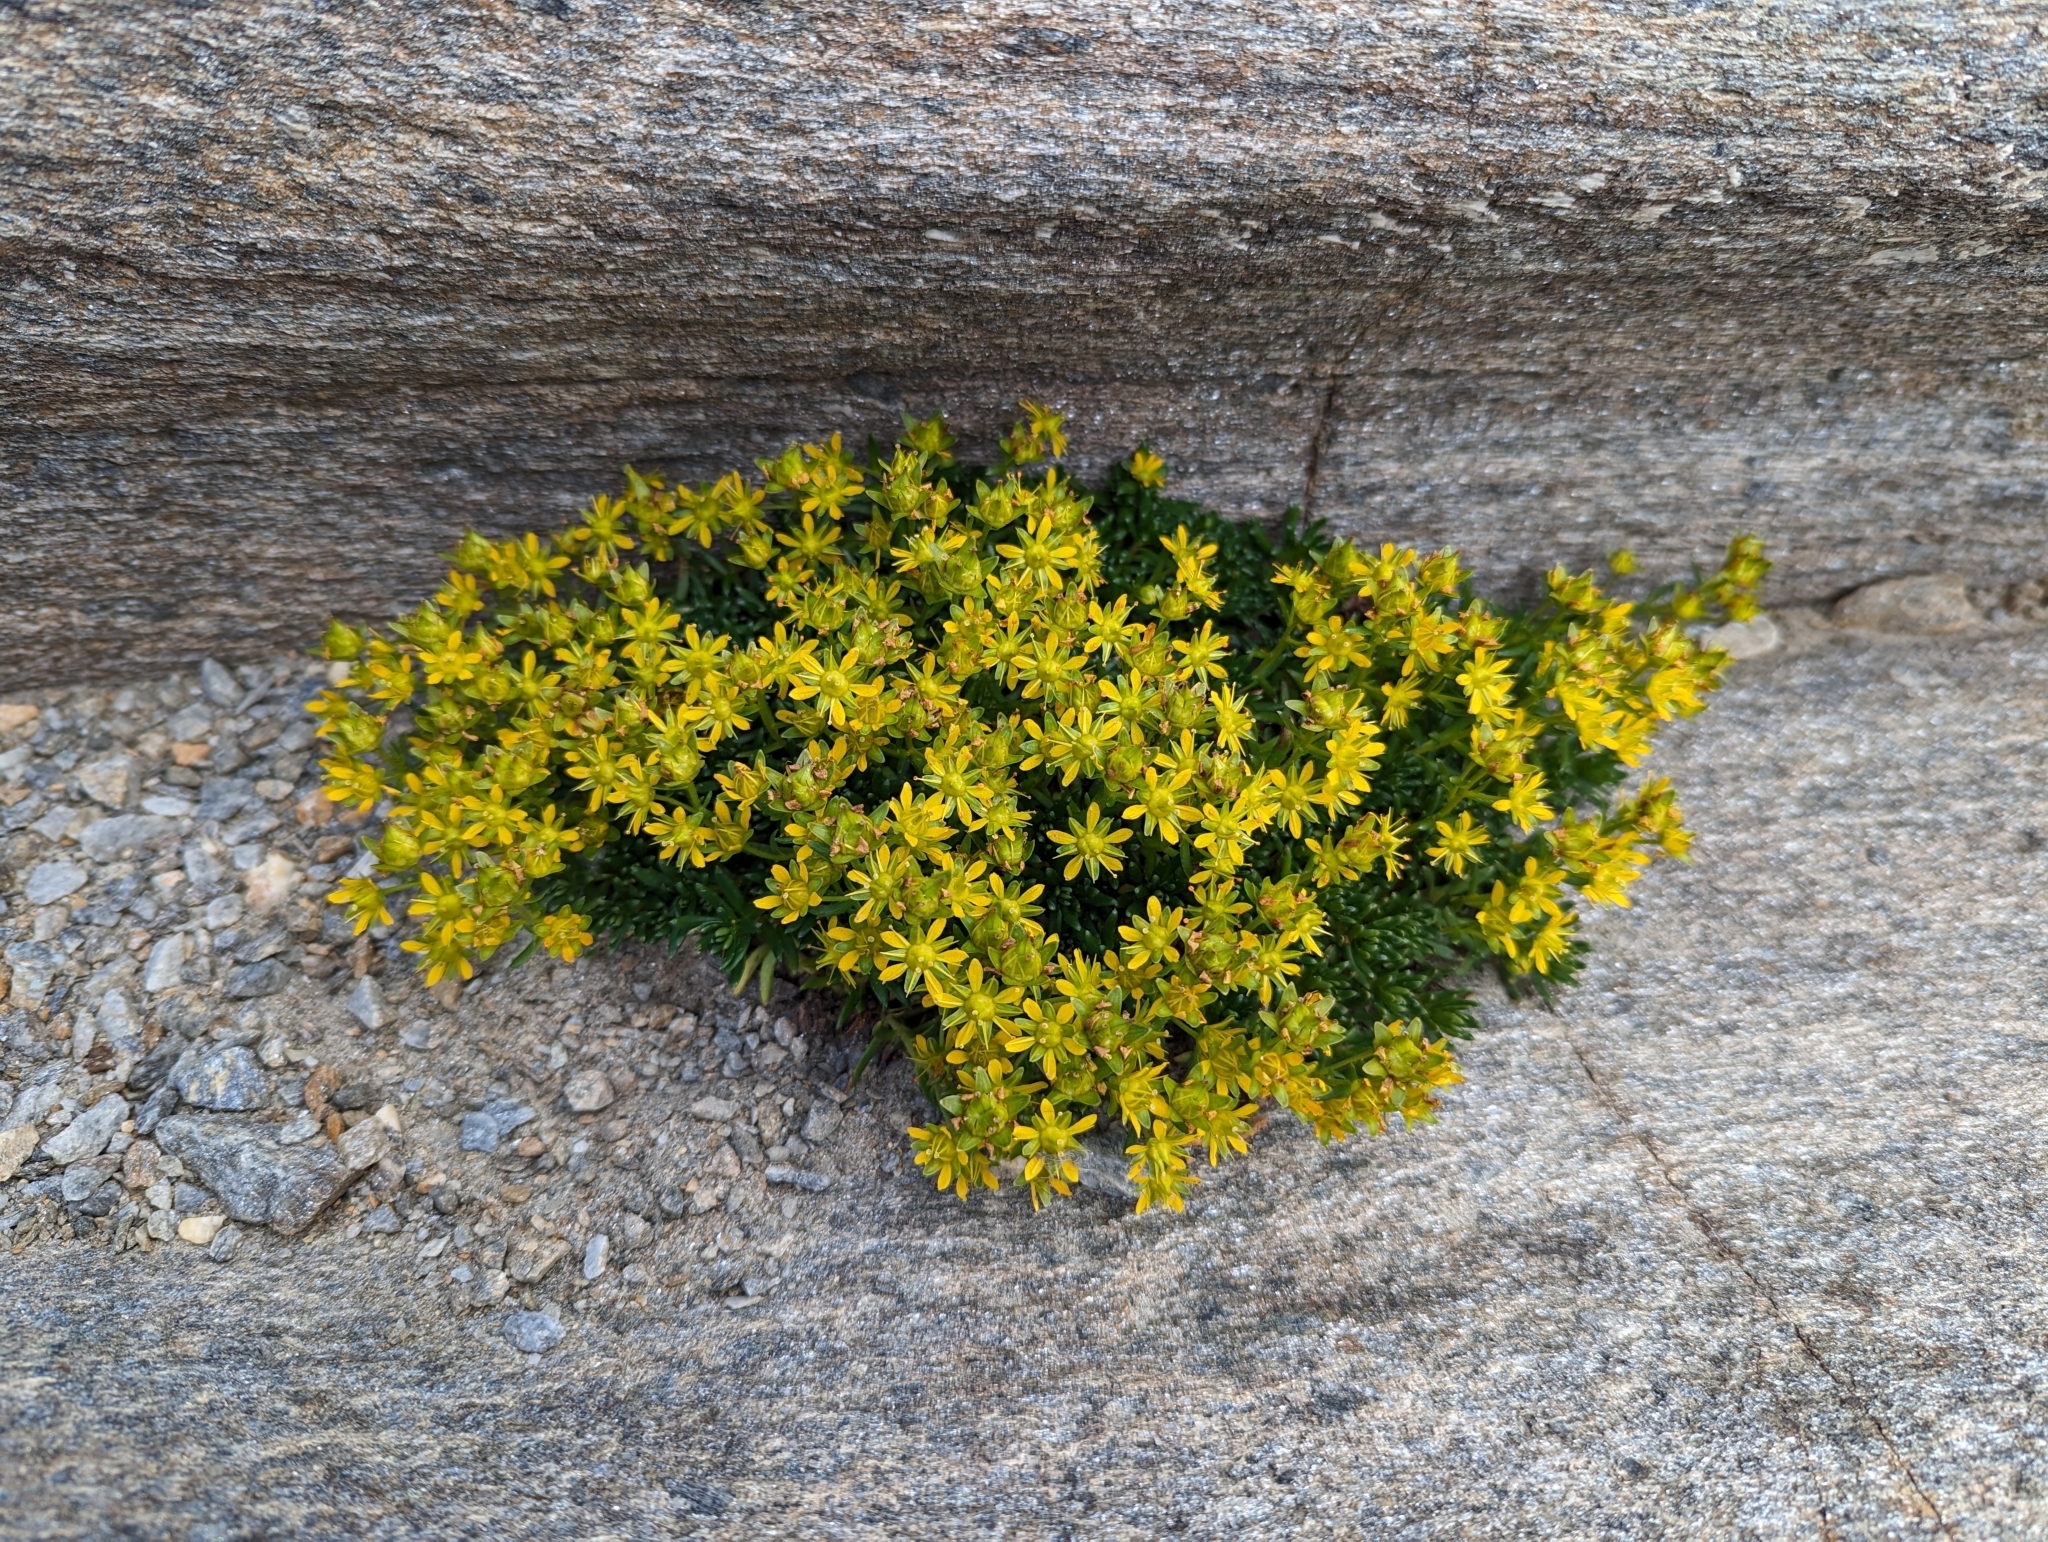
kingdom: Plantae
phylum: Tracheophyta
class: Magnoliopsida
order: Saxifragales
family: Saxifragaceae
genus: Saxifraga
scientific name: Saxifraga aizoides
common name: Yellow mountain saxifrage
